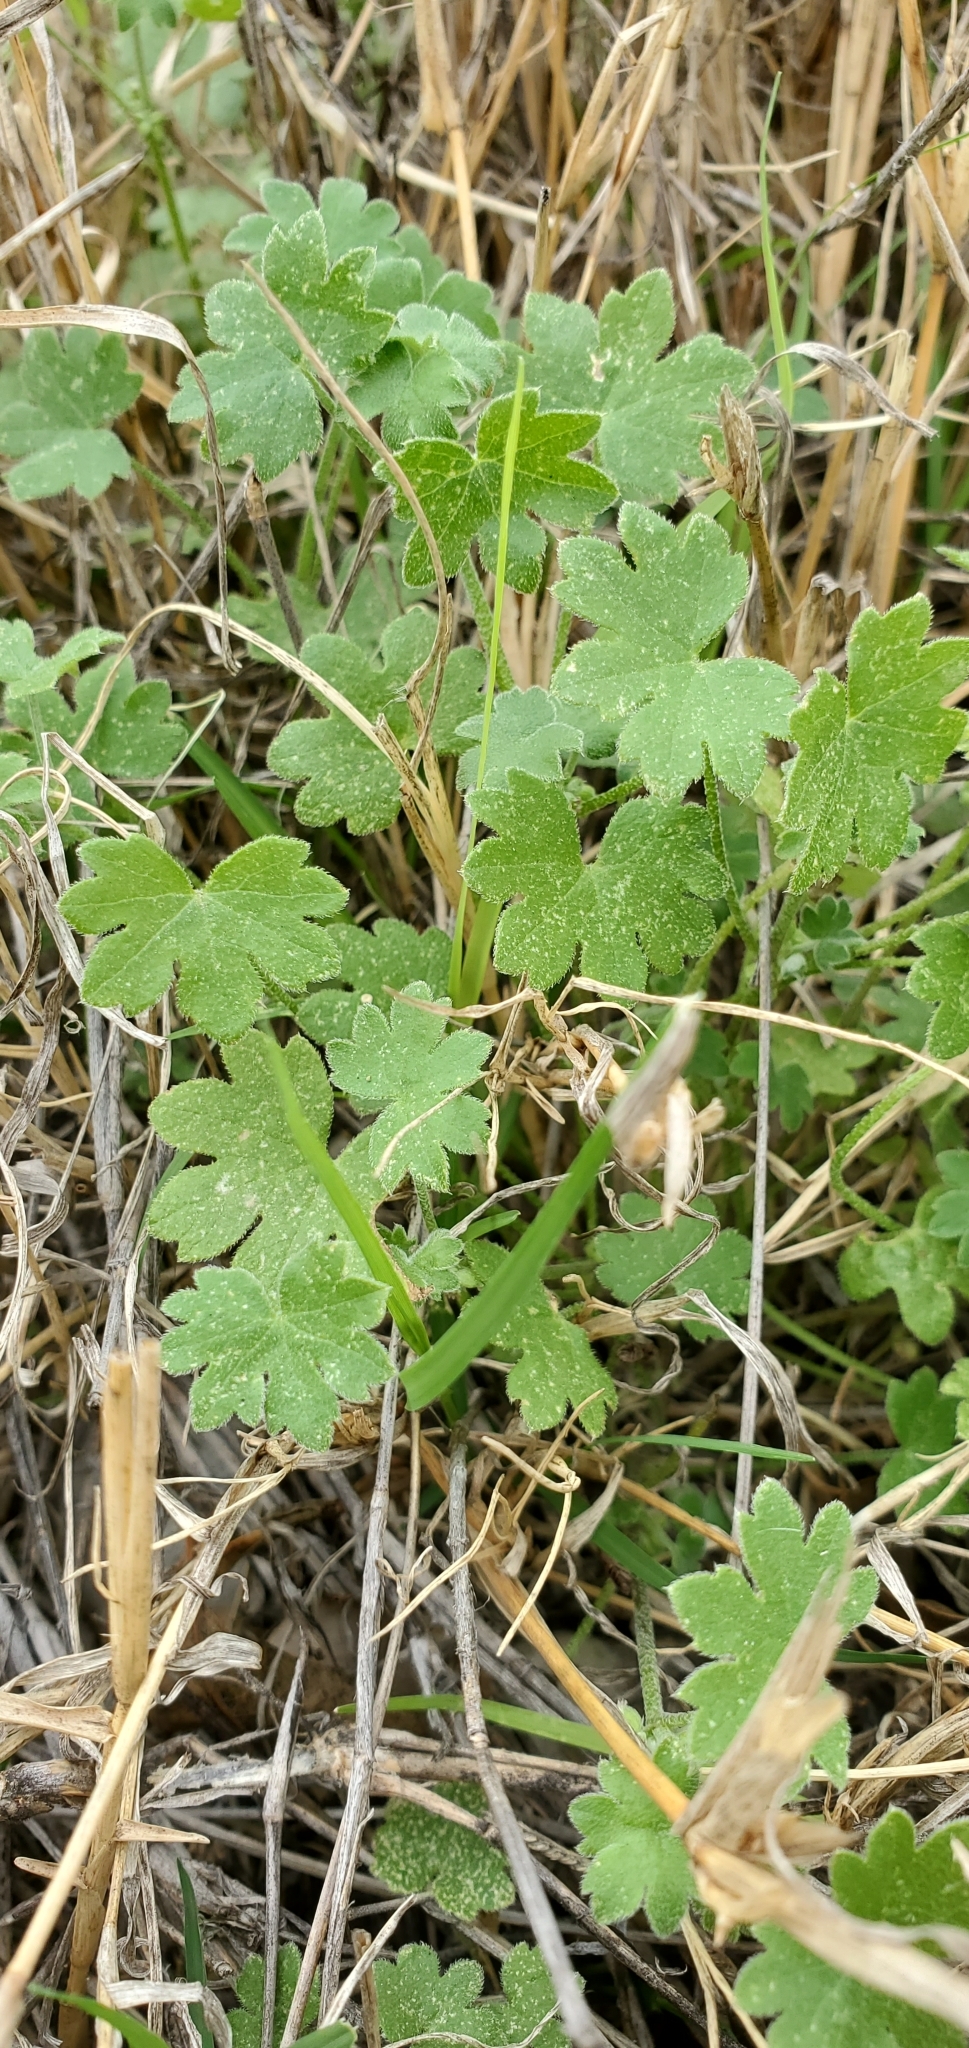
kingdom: Plantae
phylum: Tracheophyta
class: Magnoliopsida
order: Apiales
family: Apiaceae
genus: Bowlesia
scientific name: Bowlesia incana
